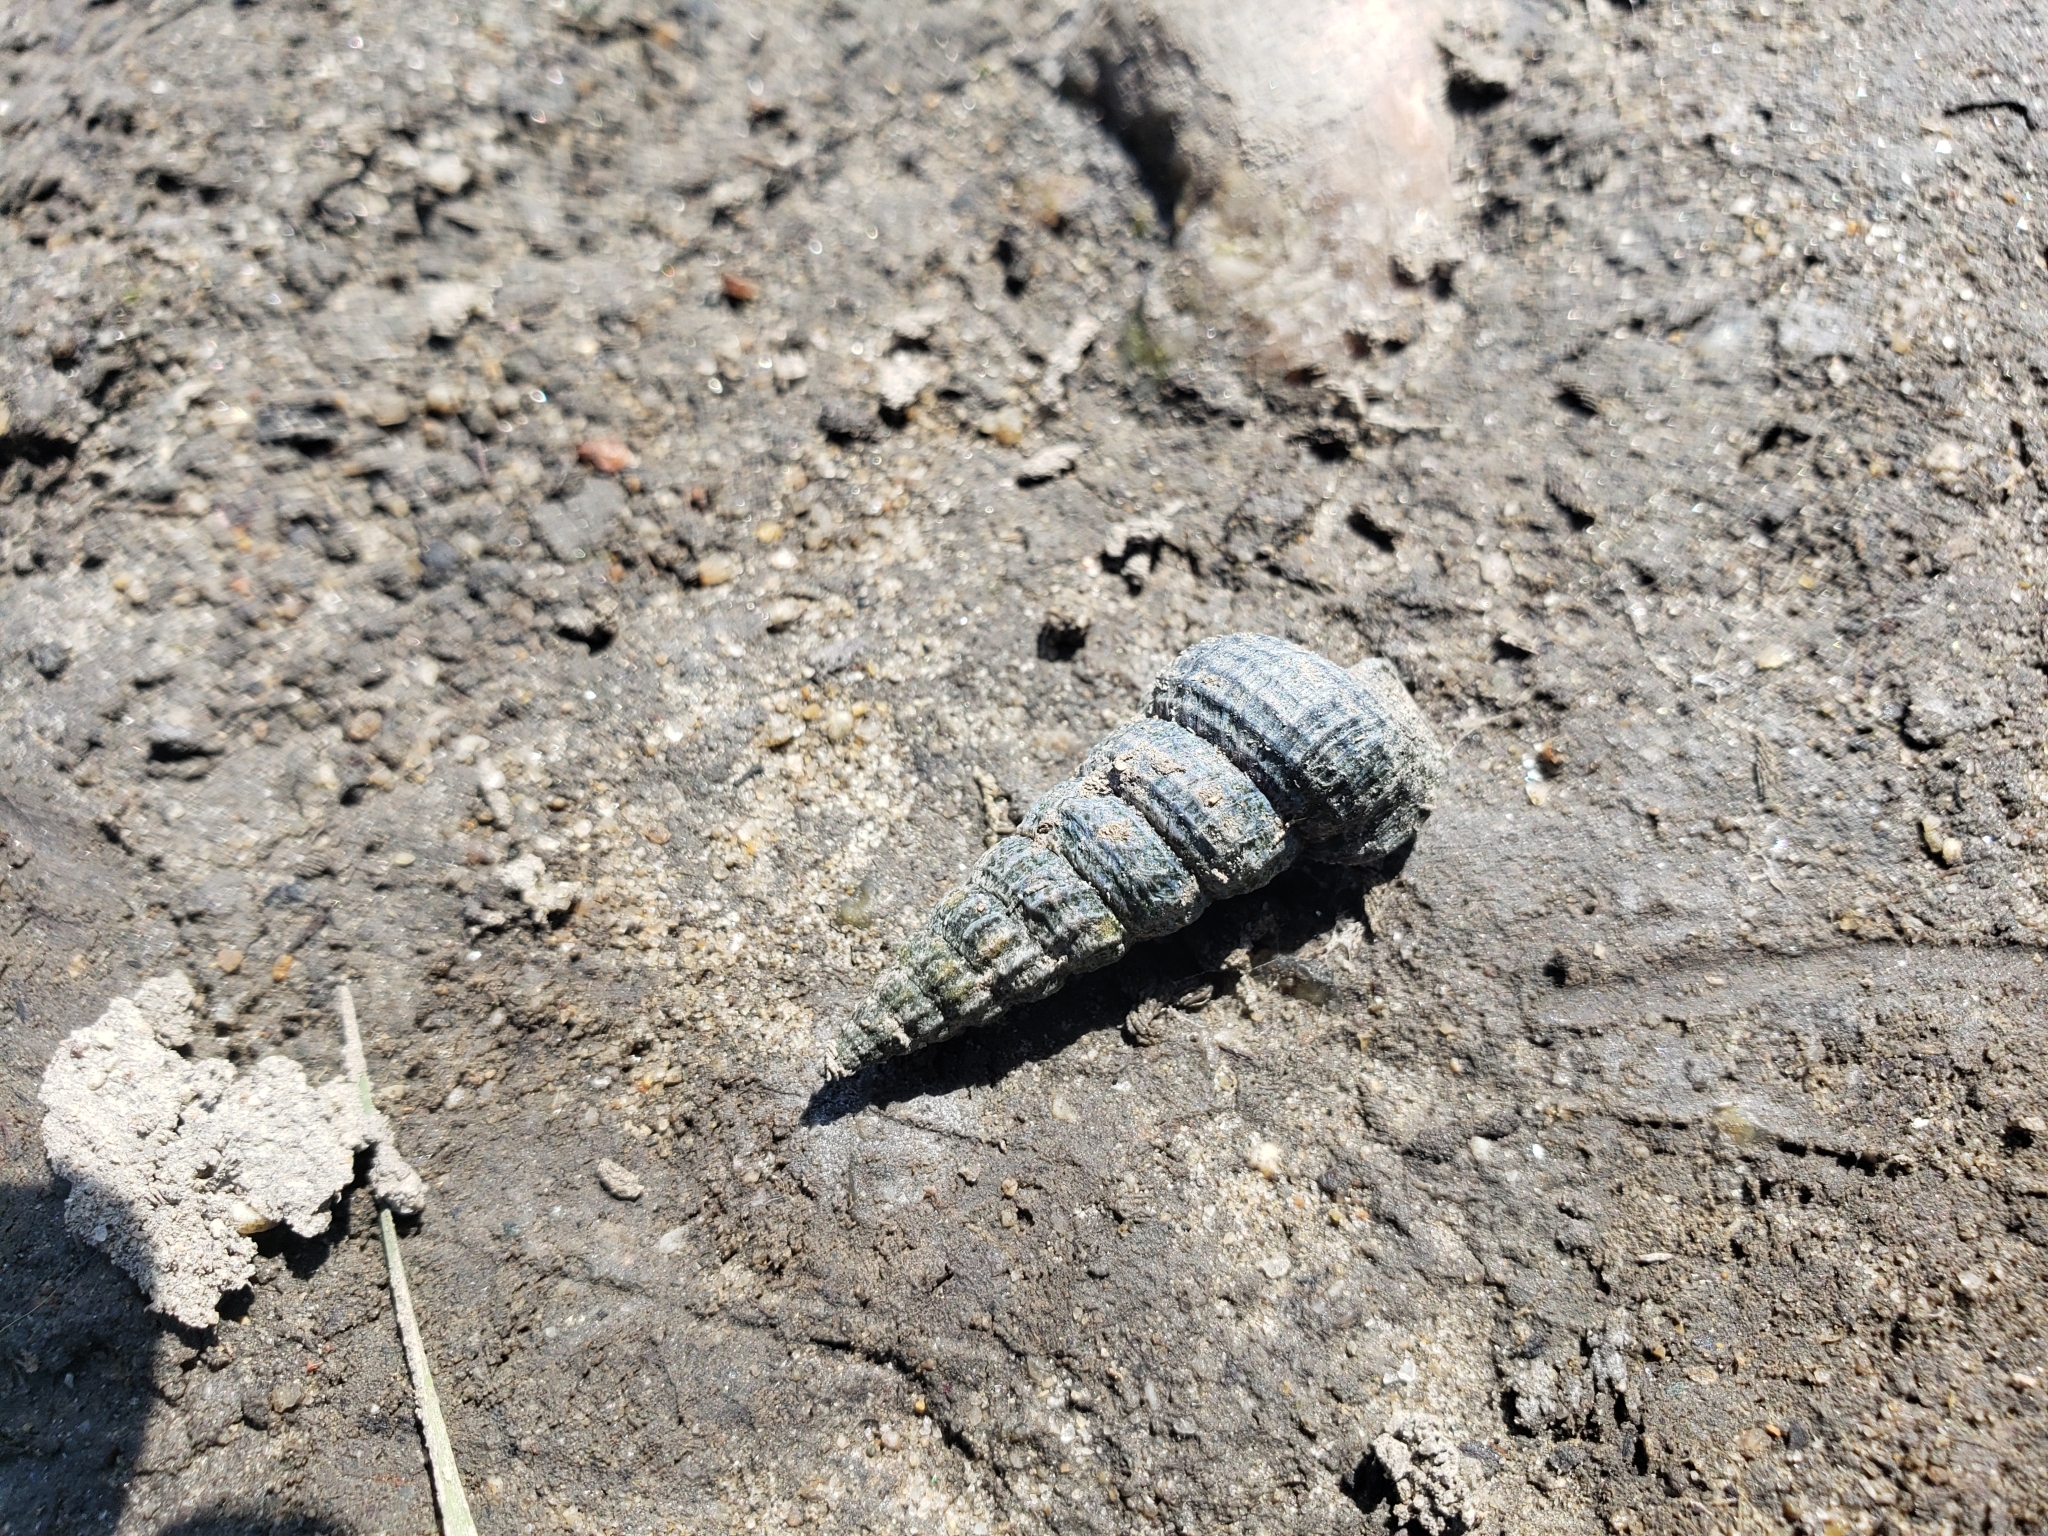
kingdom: Animalia
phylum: Mollusca
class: Gastropoda
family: Potamididae
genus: Cerithideopsis
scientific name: Cerithideopsis californica
